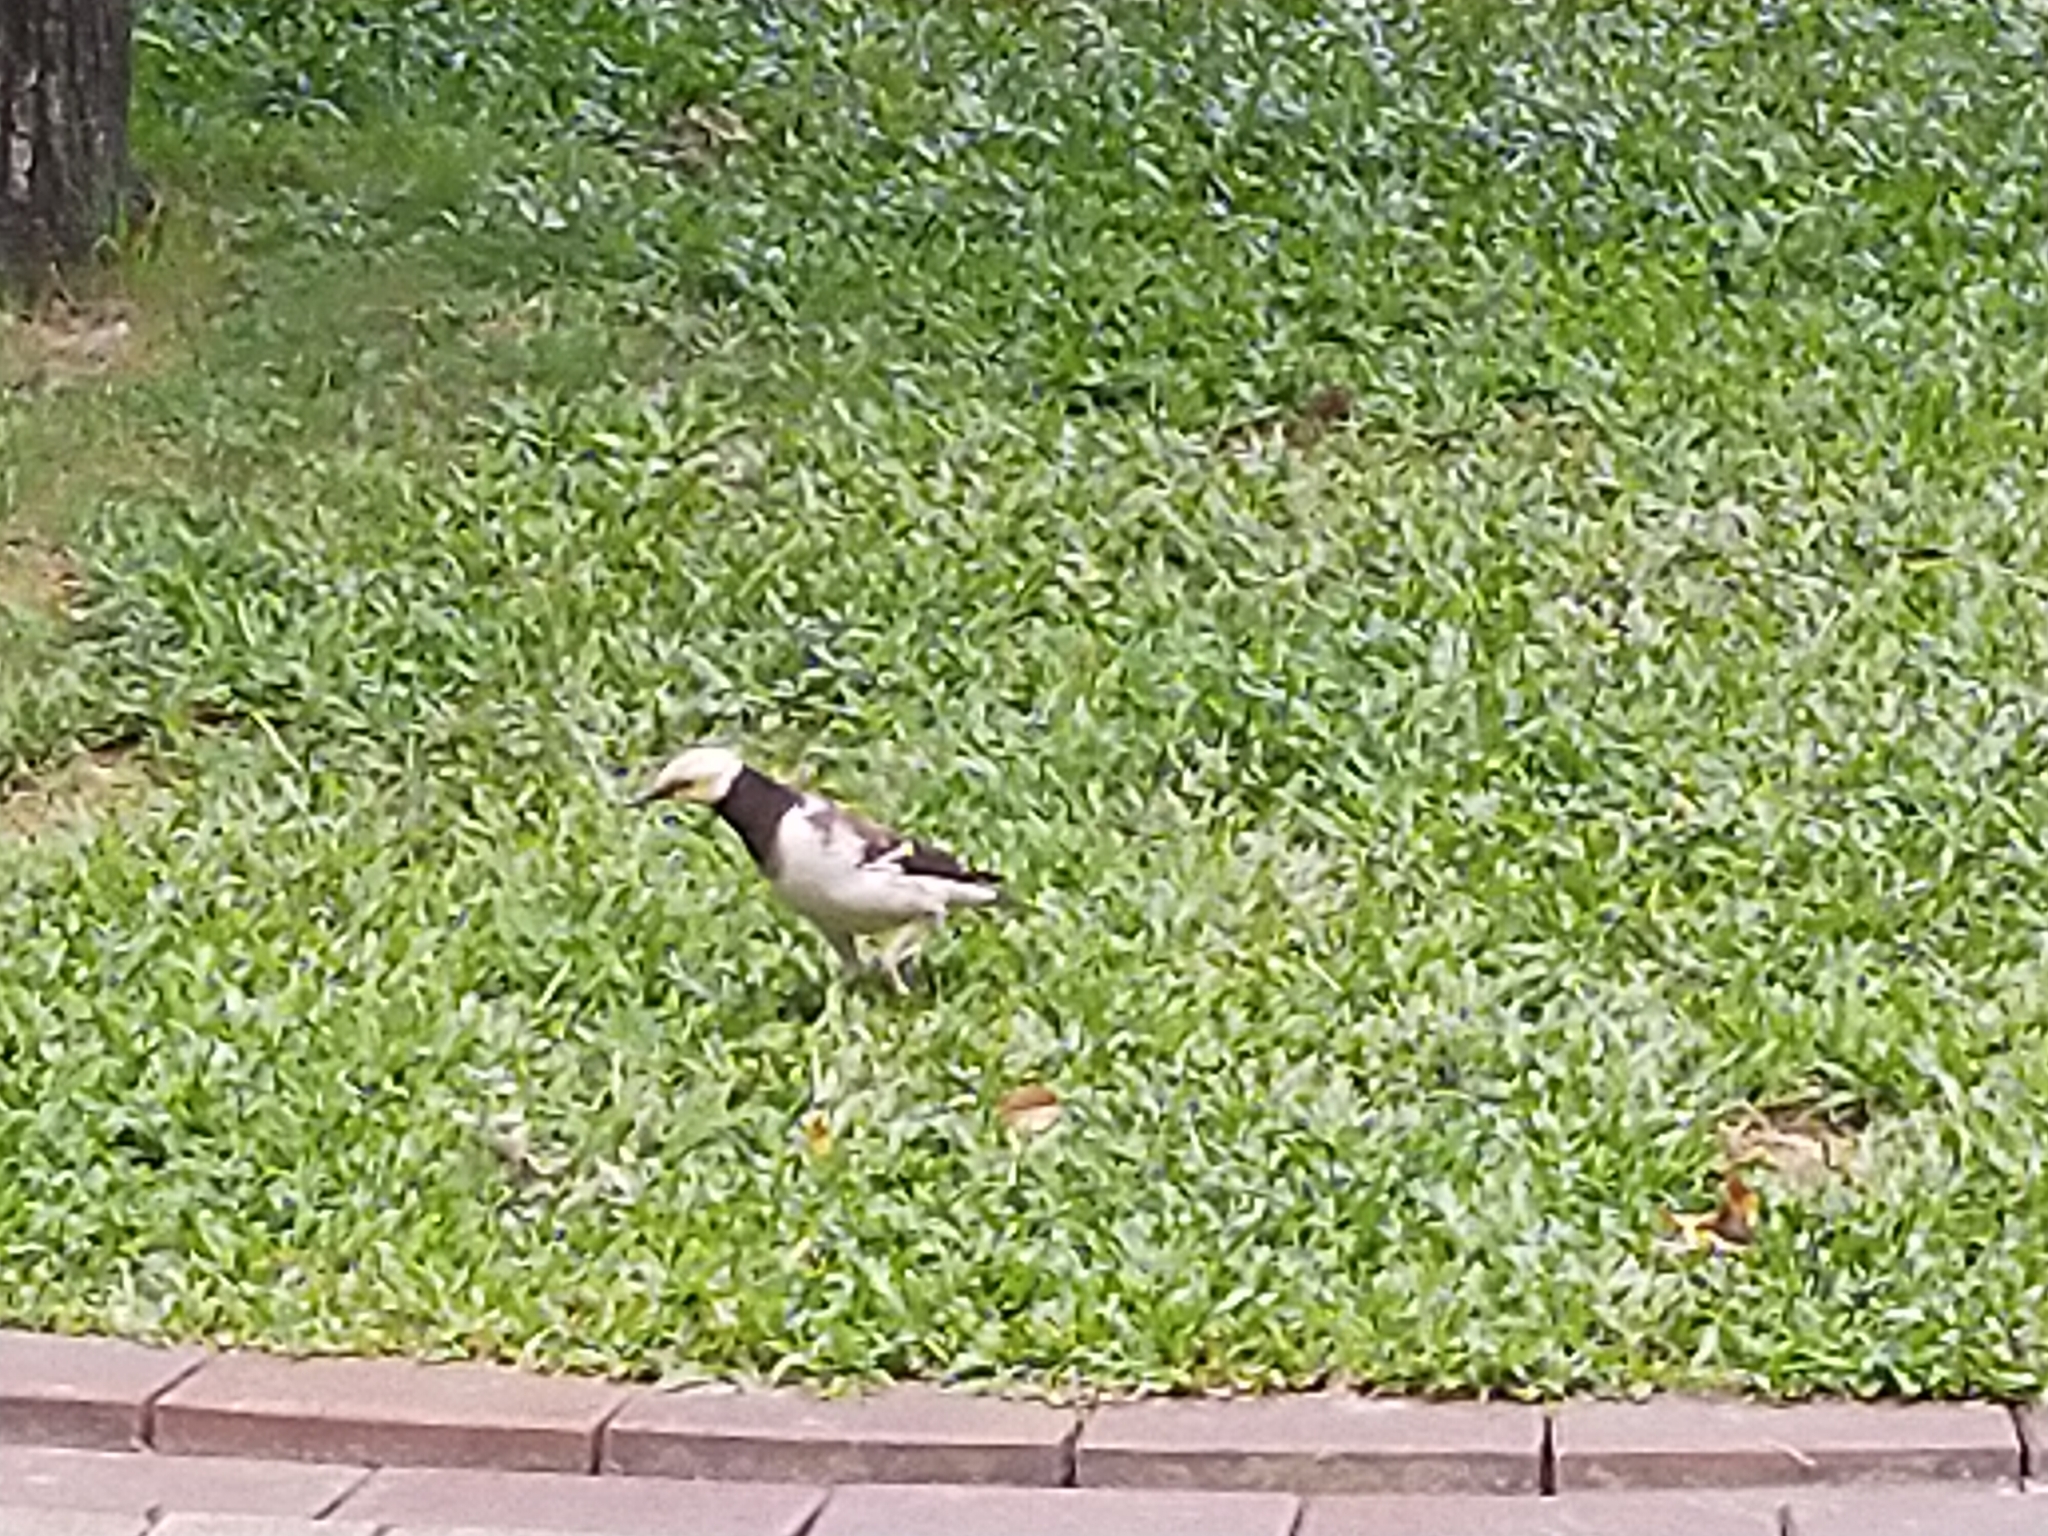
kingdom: Animalia
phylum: Chordata
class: Aves
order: Passeriformes
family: Sturnidae
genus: Gracupica
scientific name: Gracupica nigricollis
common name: Black-collared starling
